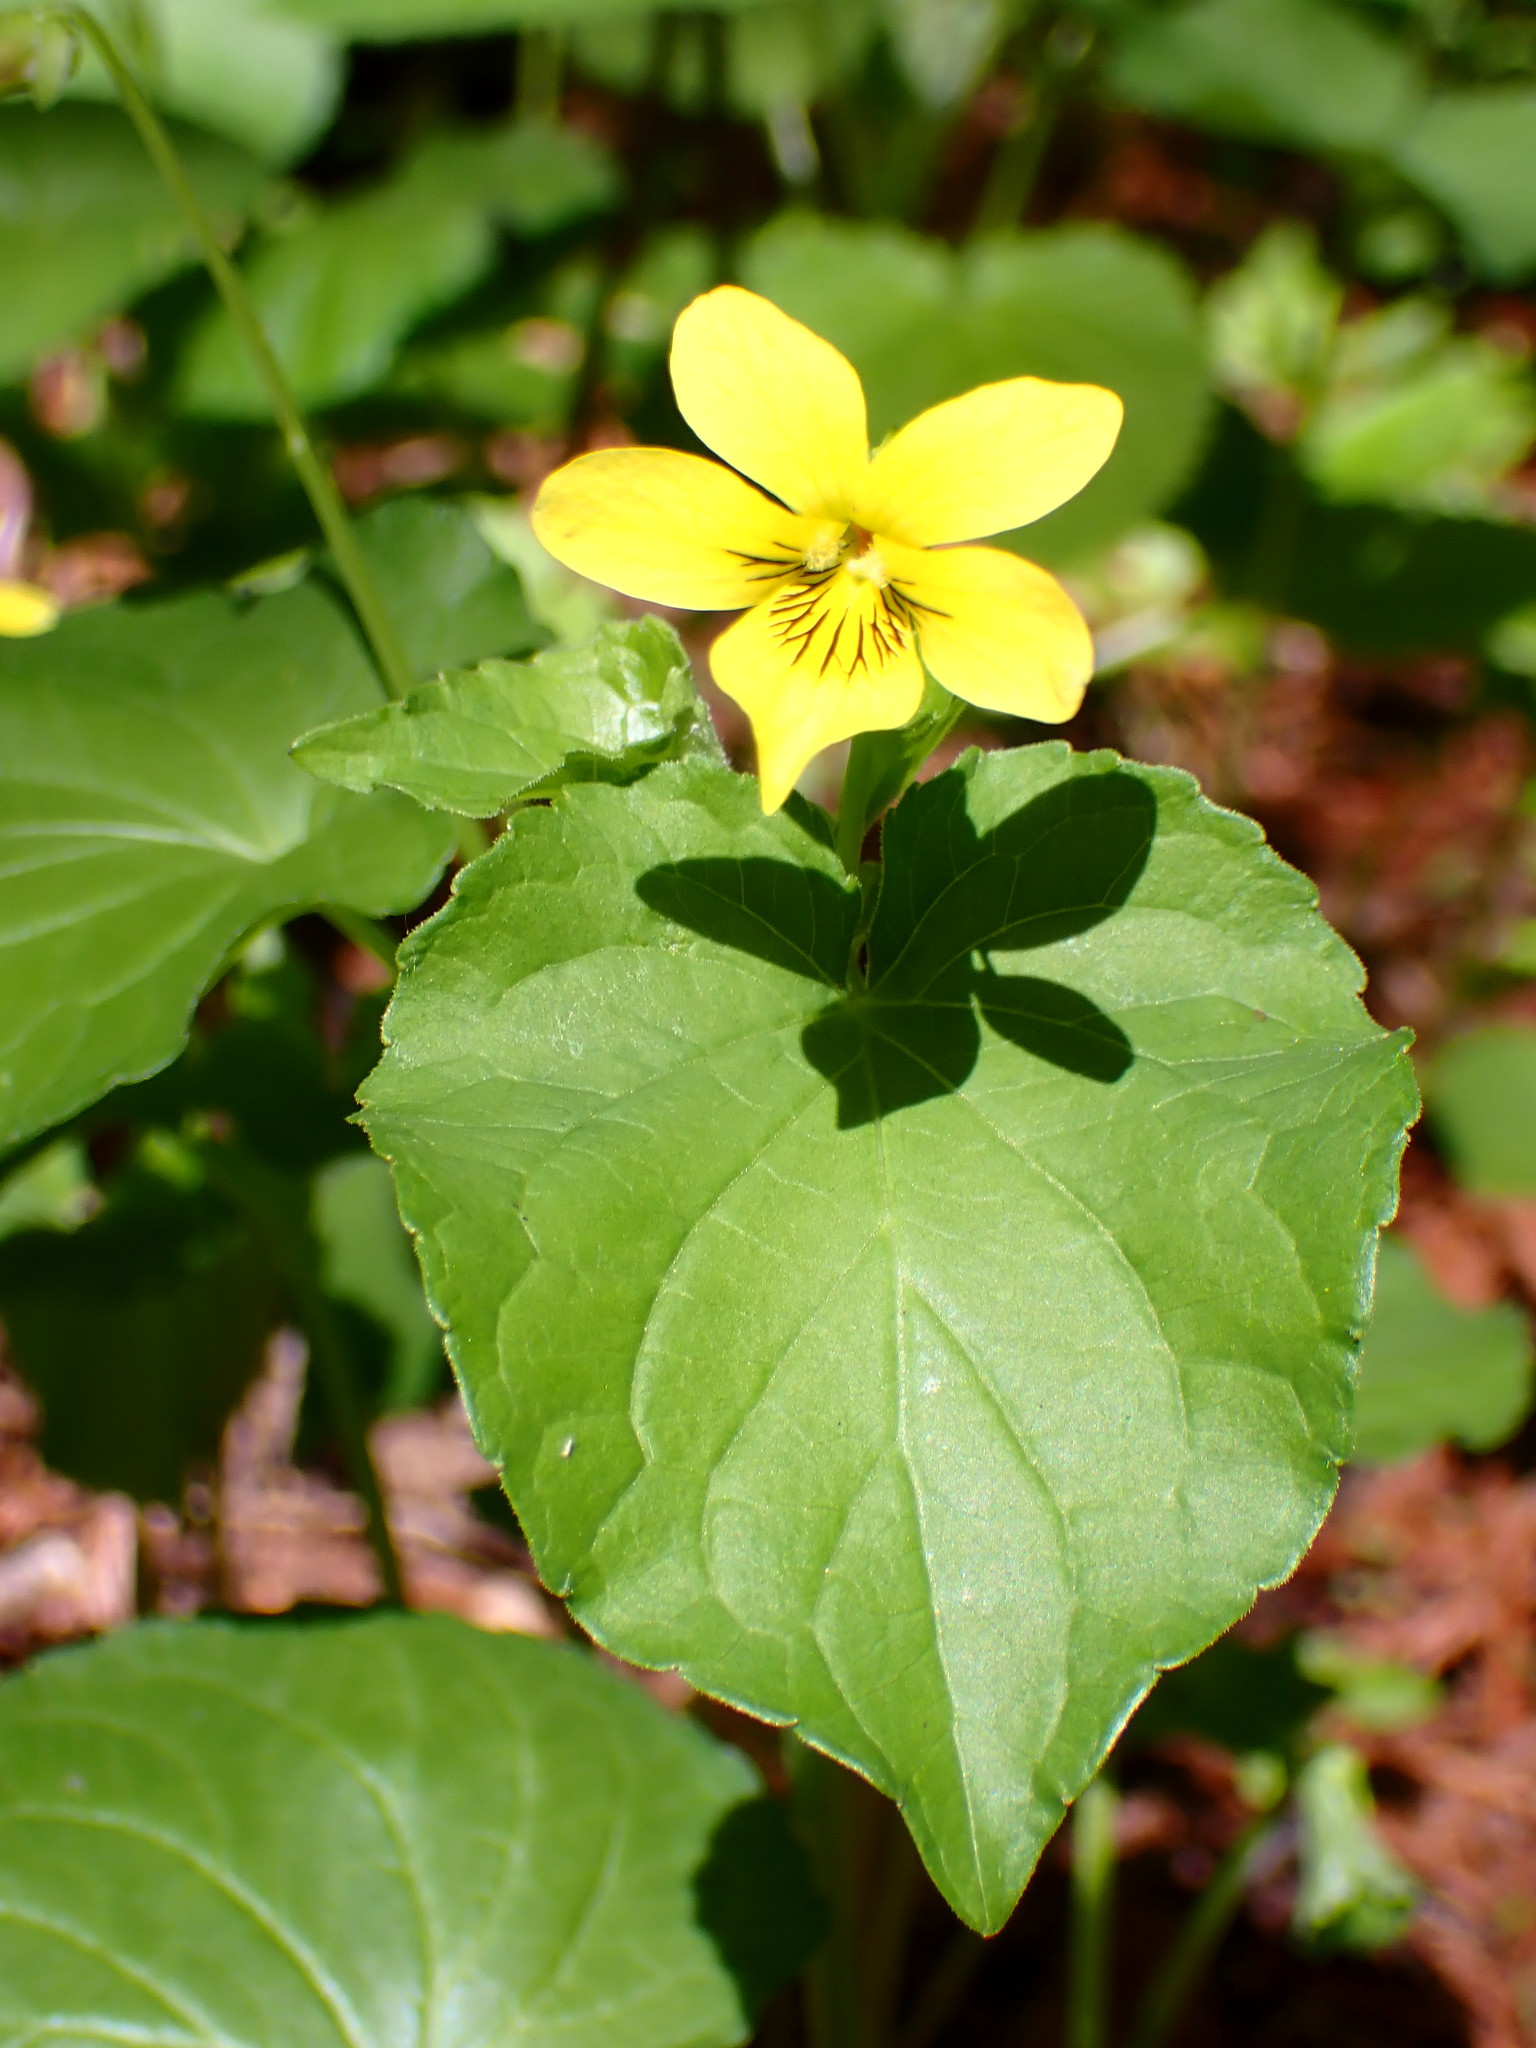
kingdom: Plantae
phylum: Tracheophyta
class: Magnoliopsida
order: Malpighiales
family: Violaceae
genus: Viola
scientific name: Viola glabella
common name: Stream violet
